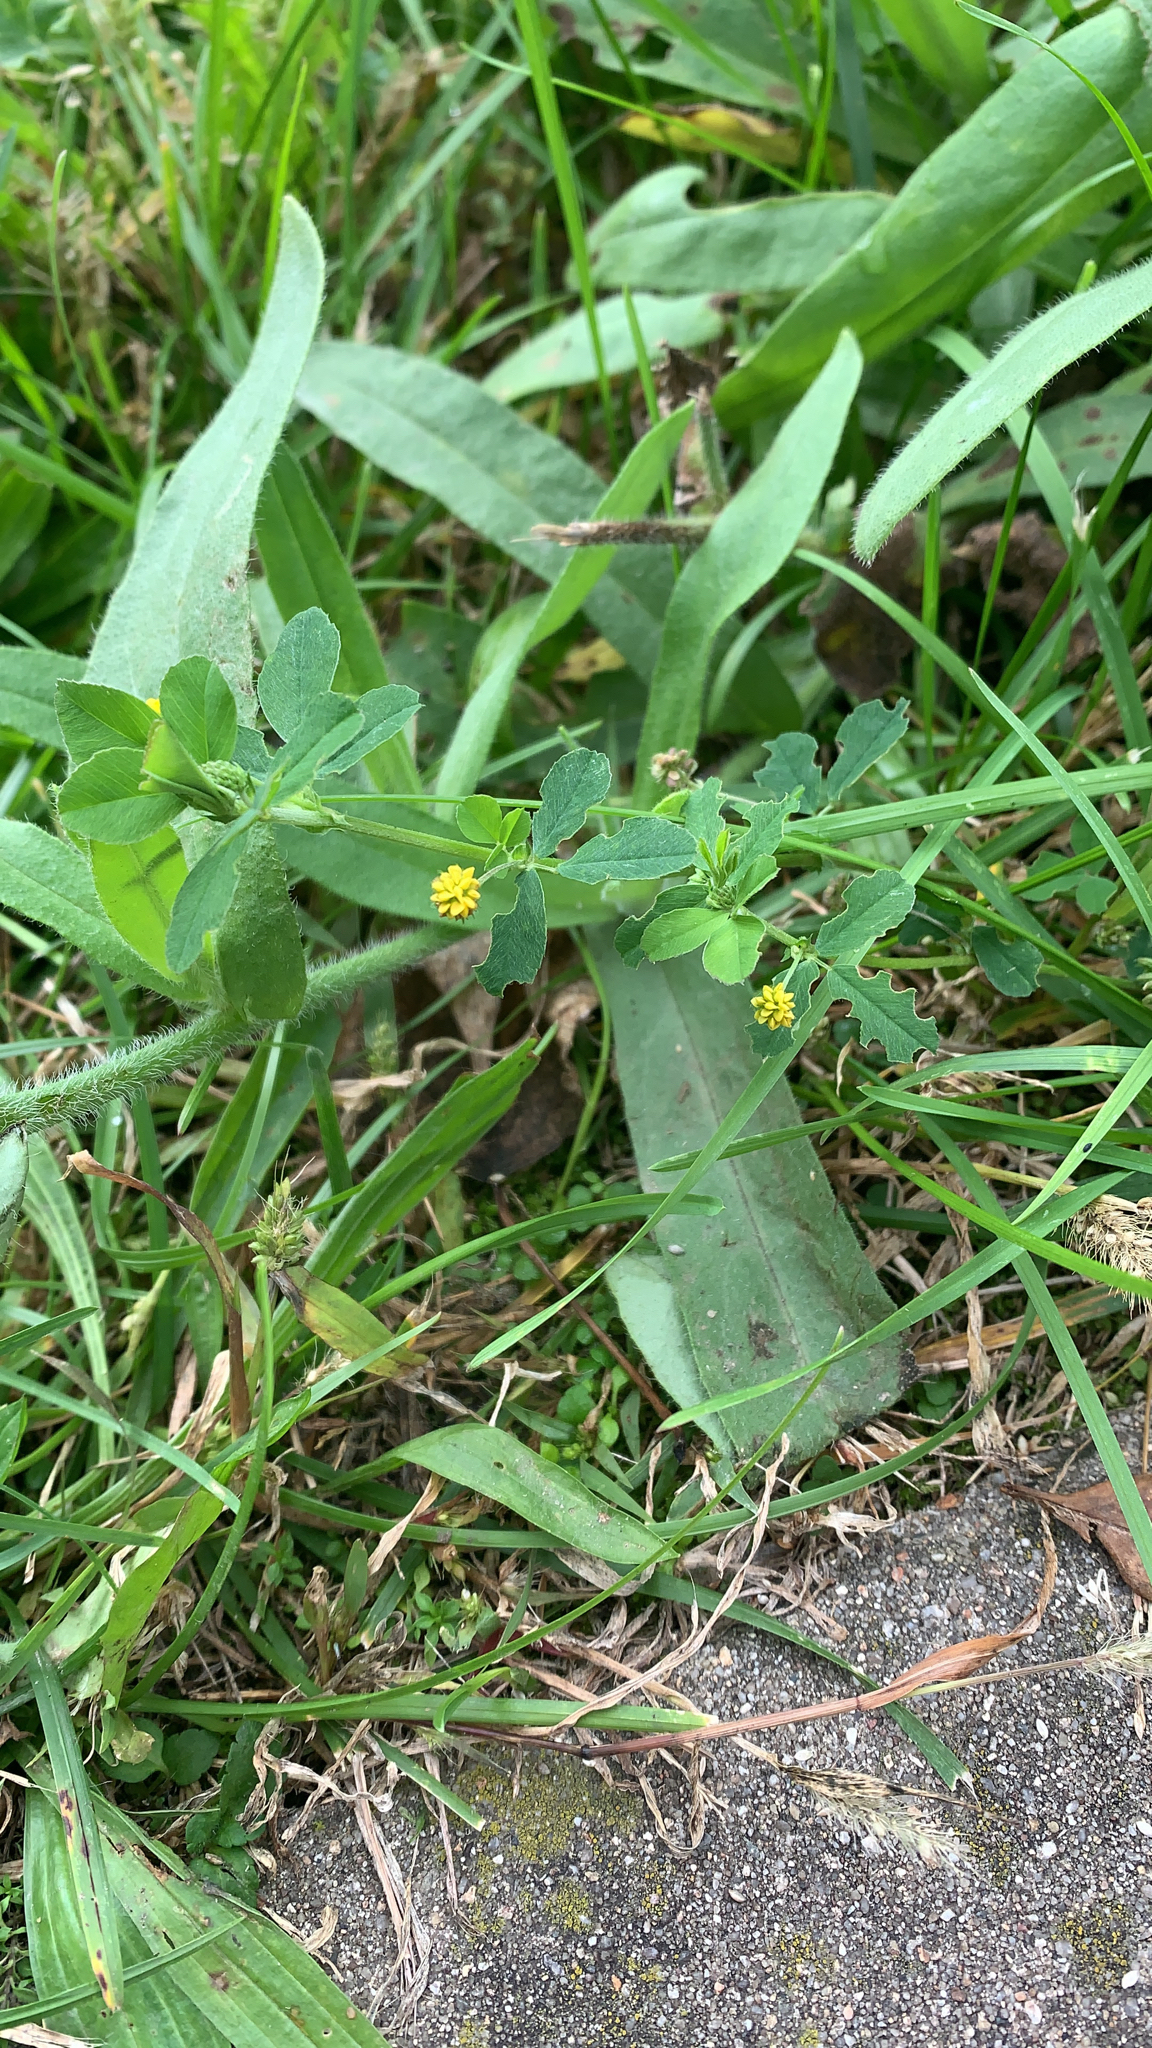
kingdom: Plantae
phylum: Tracheophyta
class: Magnoliopsida
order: Fabales
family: Fabaceae
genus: Medicago
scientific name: Medicago lupulina
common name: Black medick
